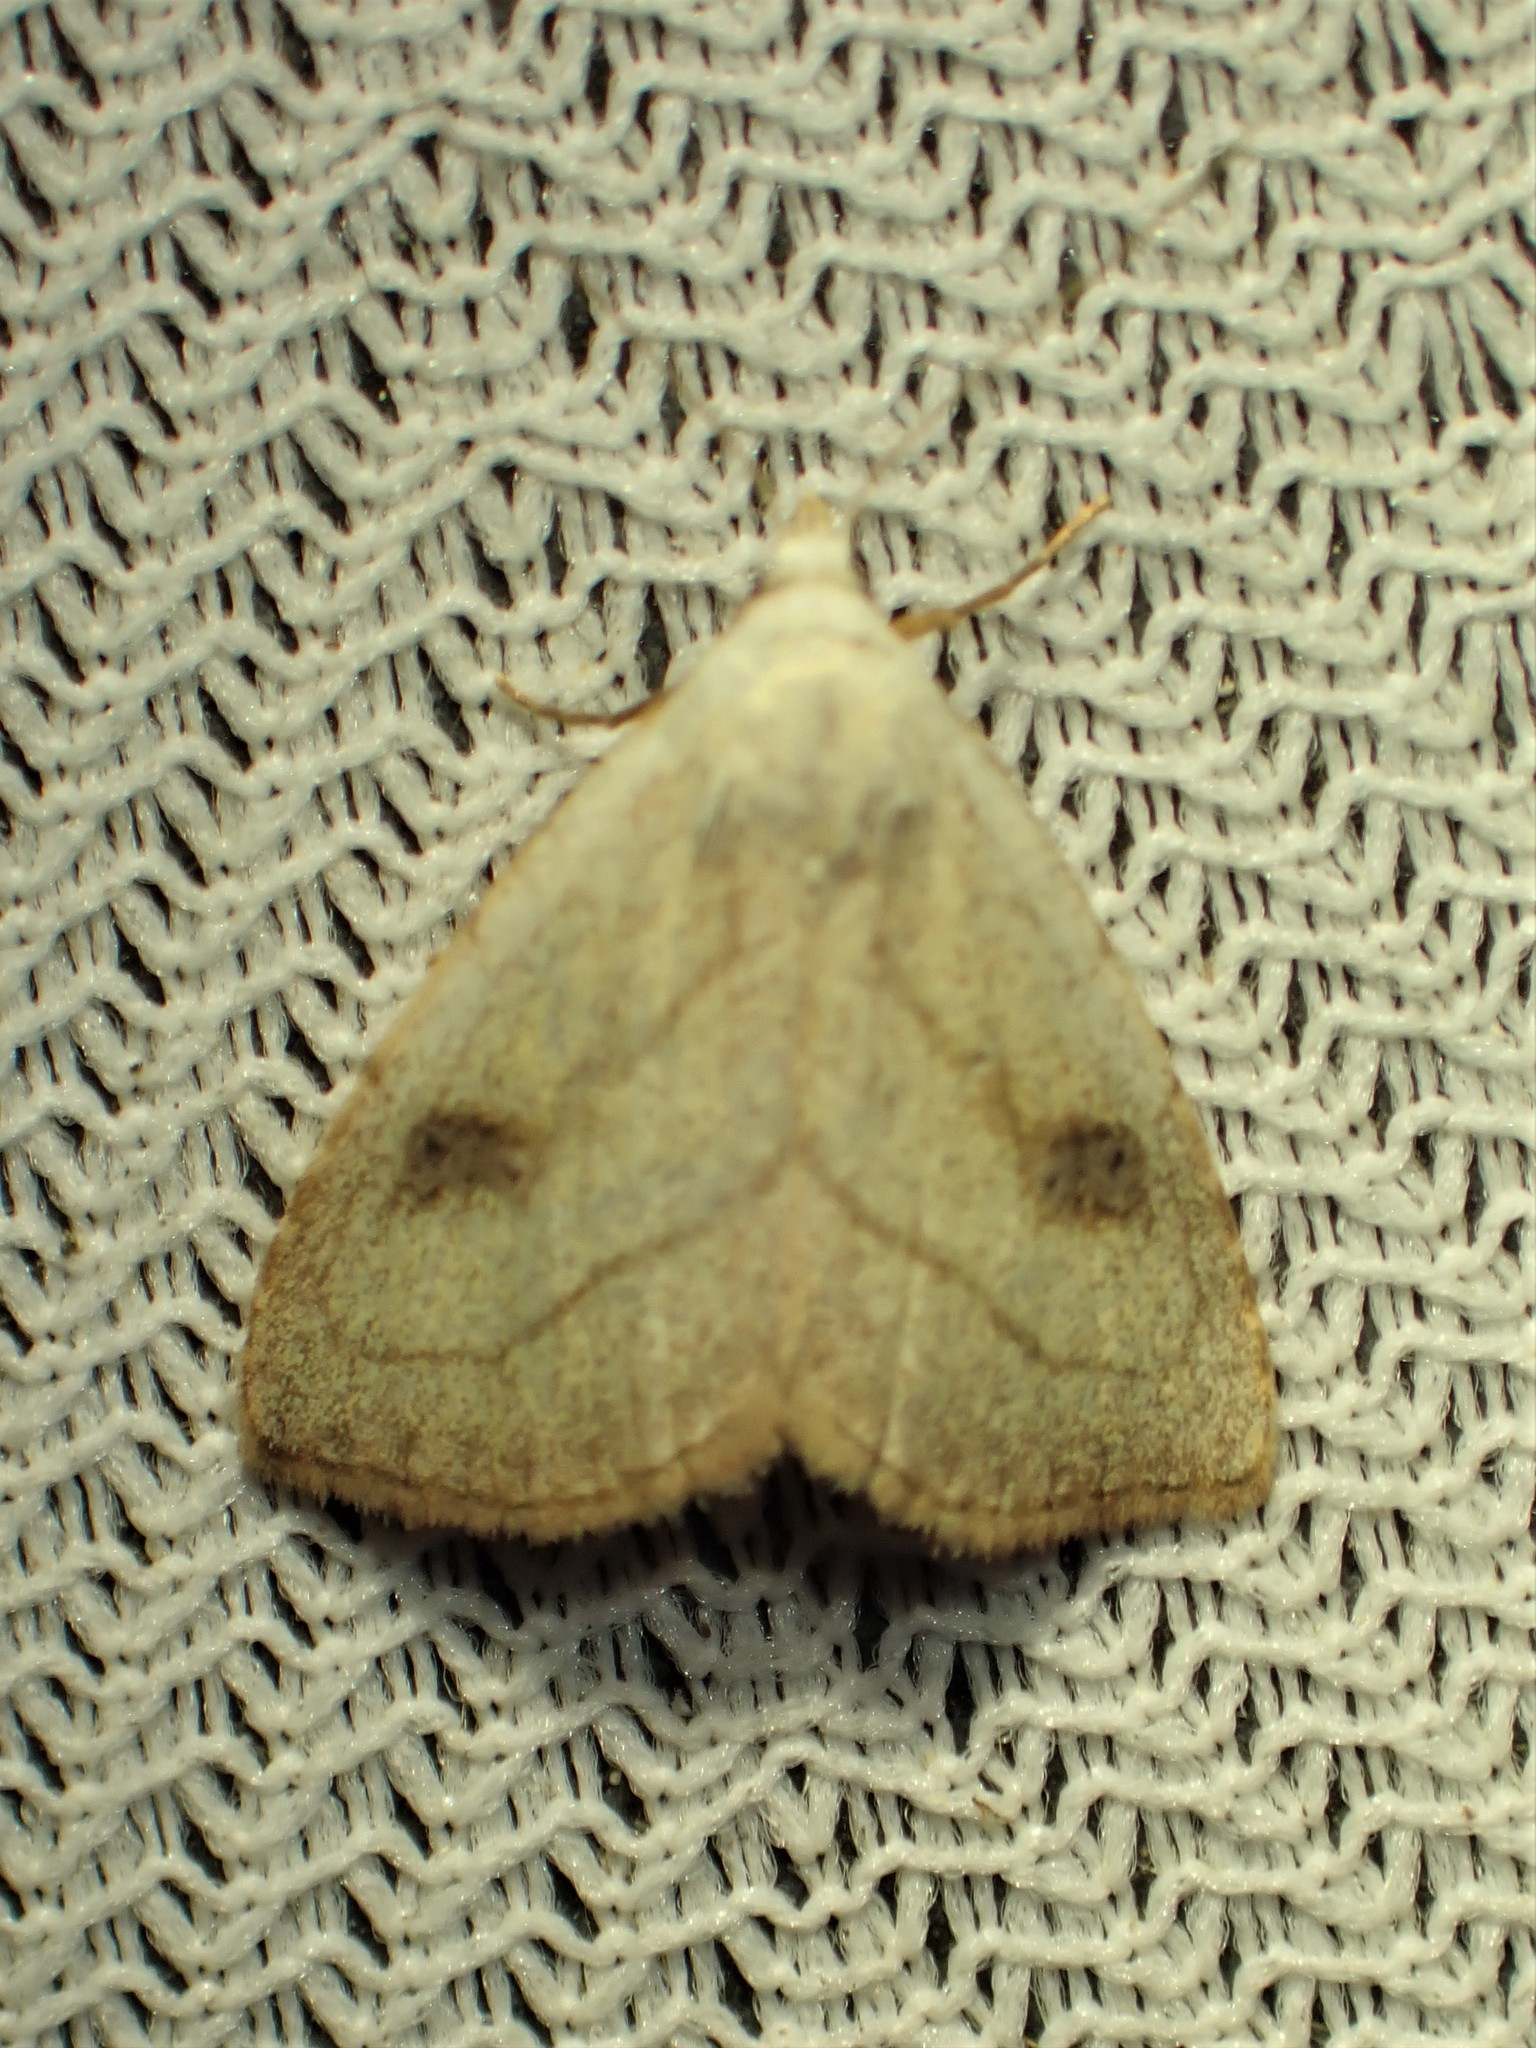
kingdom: Animalia
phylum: Arthropoda
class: Insecta
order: Lepidoptera
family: Erebidae
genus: Rivula
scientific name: Rivula propinqualis
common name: Spotted grass moth
